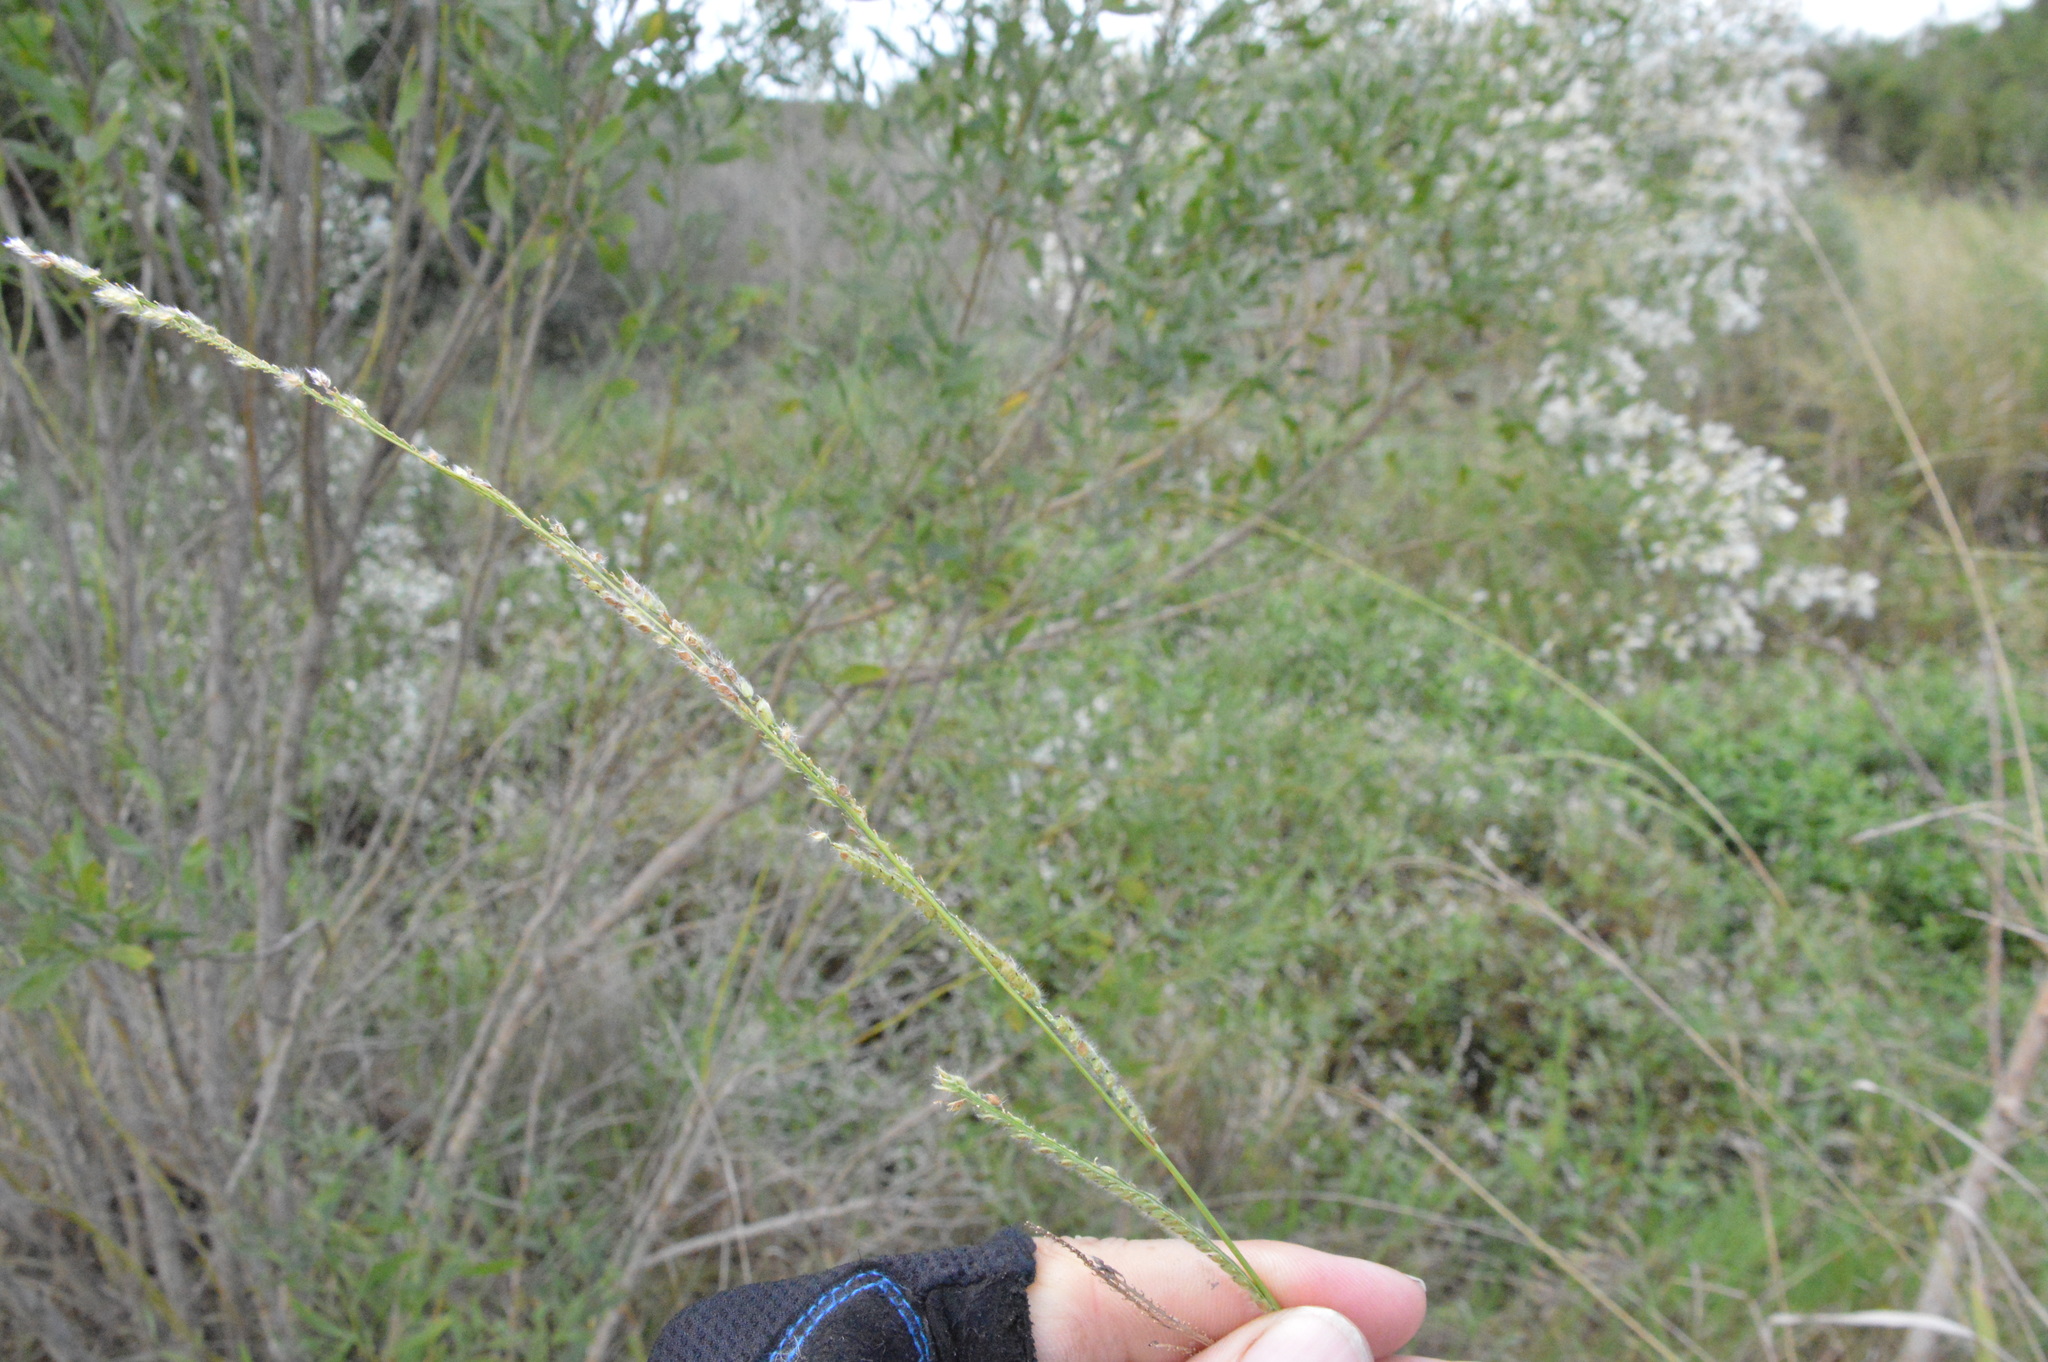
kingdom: Plantae
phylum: Tracheophyta
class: Liliopsida
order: Poales
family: Poaceae
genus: Paspalum
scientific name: Paspalum urvillei
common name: Vasey's grass
